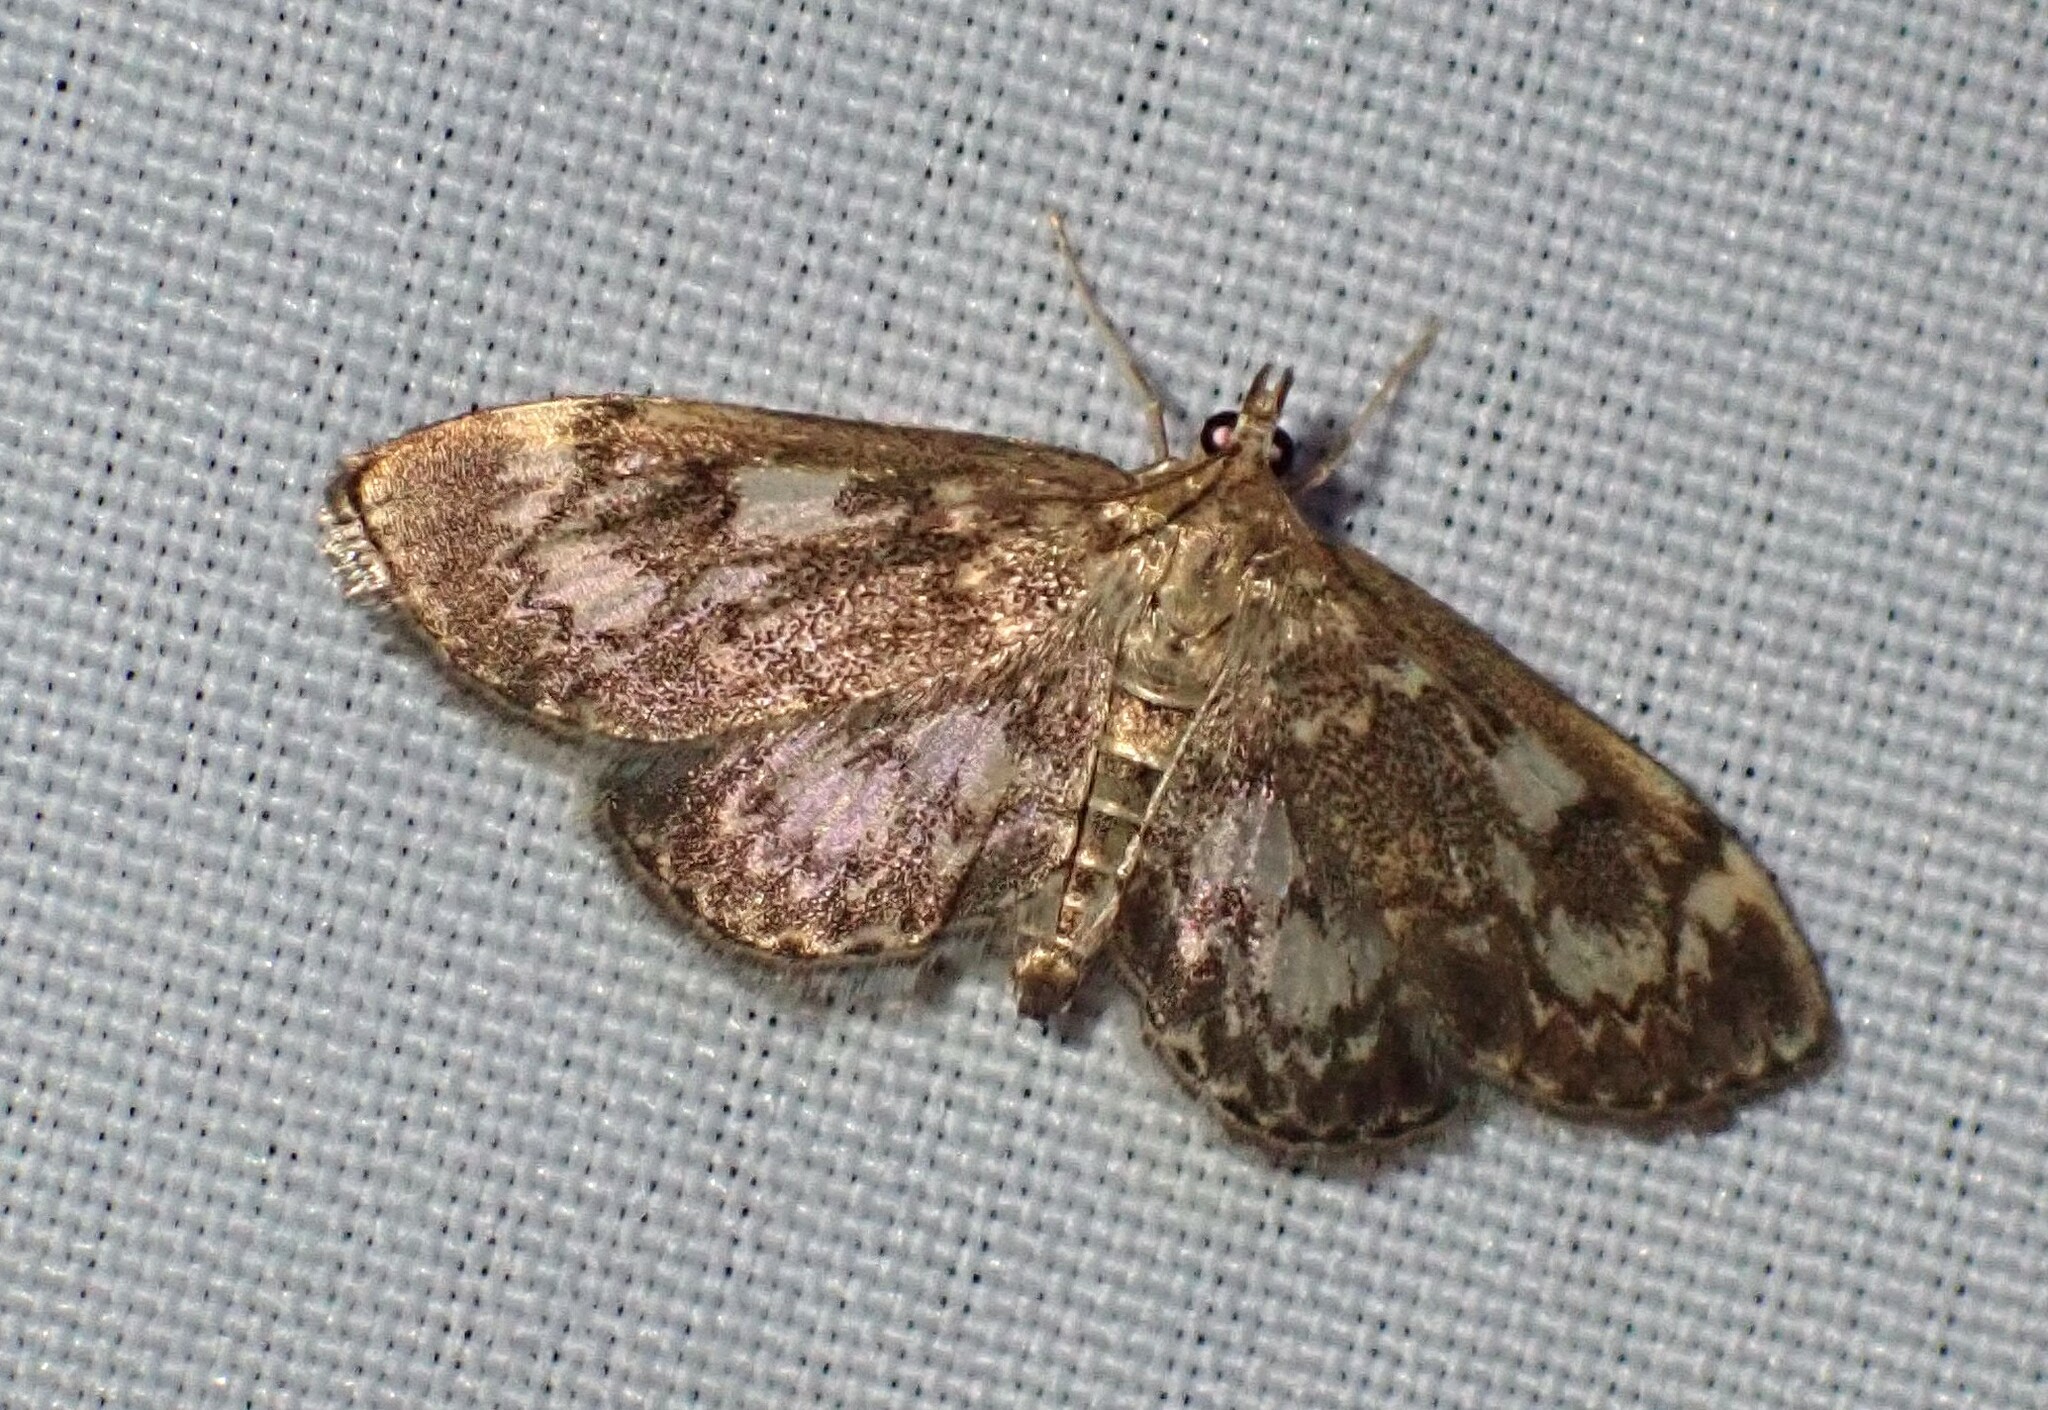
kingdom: Animalia
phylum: Arthropoda
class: Insecta
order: Lepidoptera
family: Crambidae
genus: Anania
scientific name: Anania tertialis
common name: Crowned phylctaenia moth
